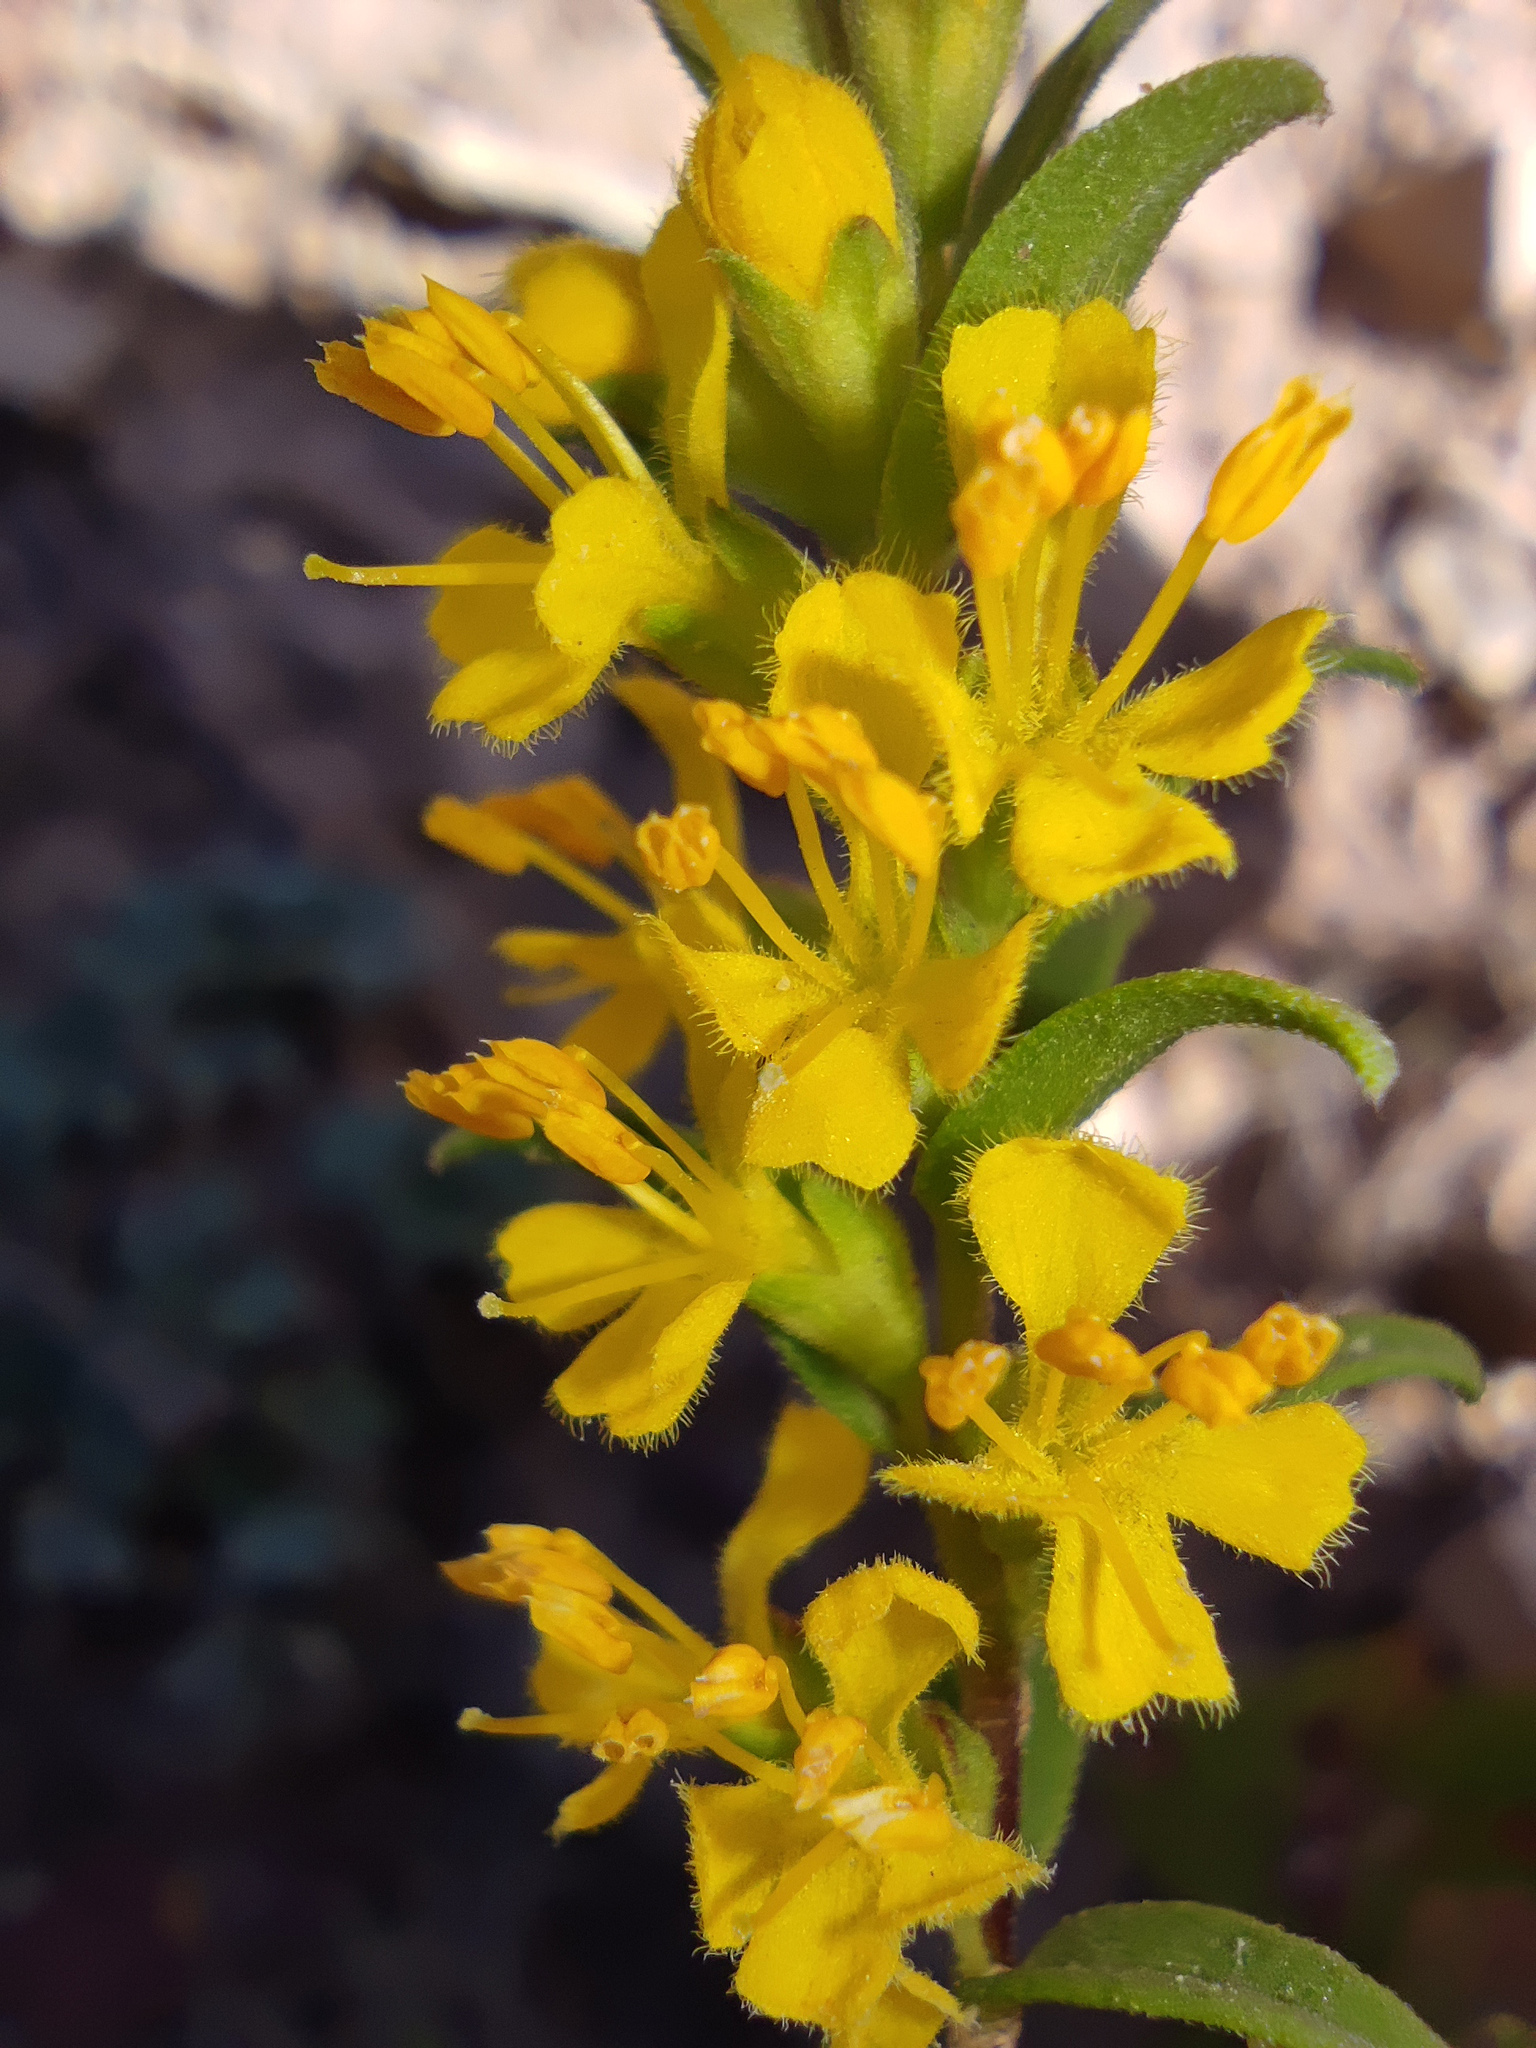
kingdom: Plantae
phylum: Tracheophyta
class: Magnoliopsida
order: Lamiales
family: Orobanchaceae
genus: Odontites
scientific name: Odontites luteus
